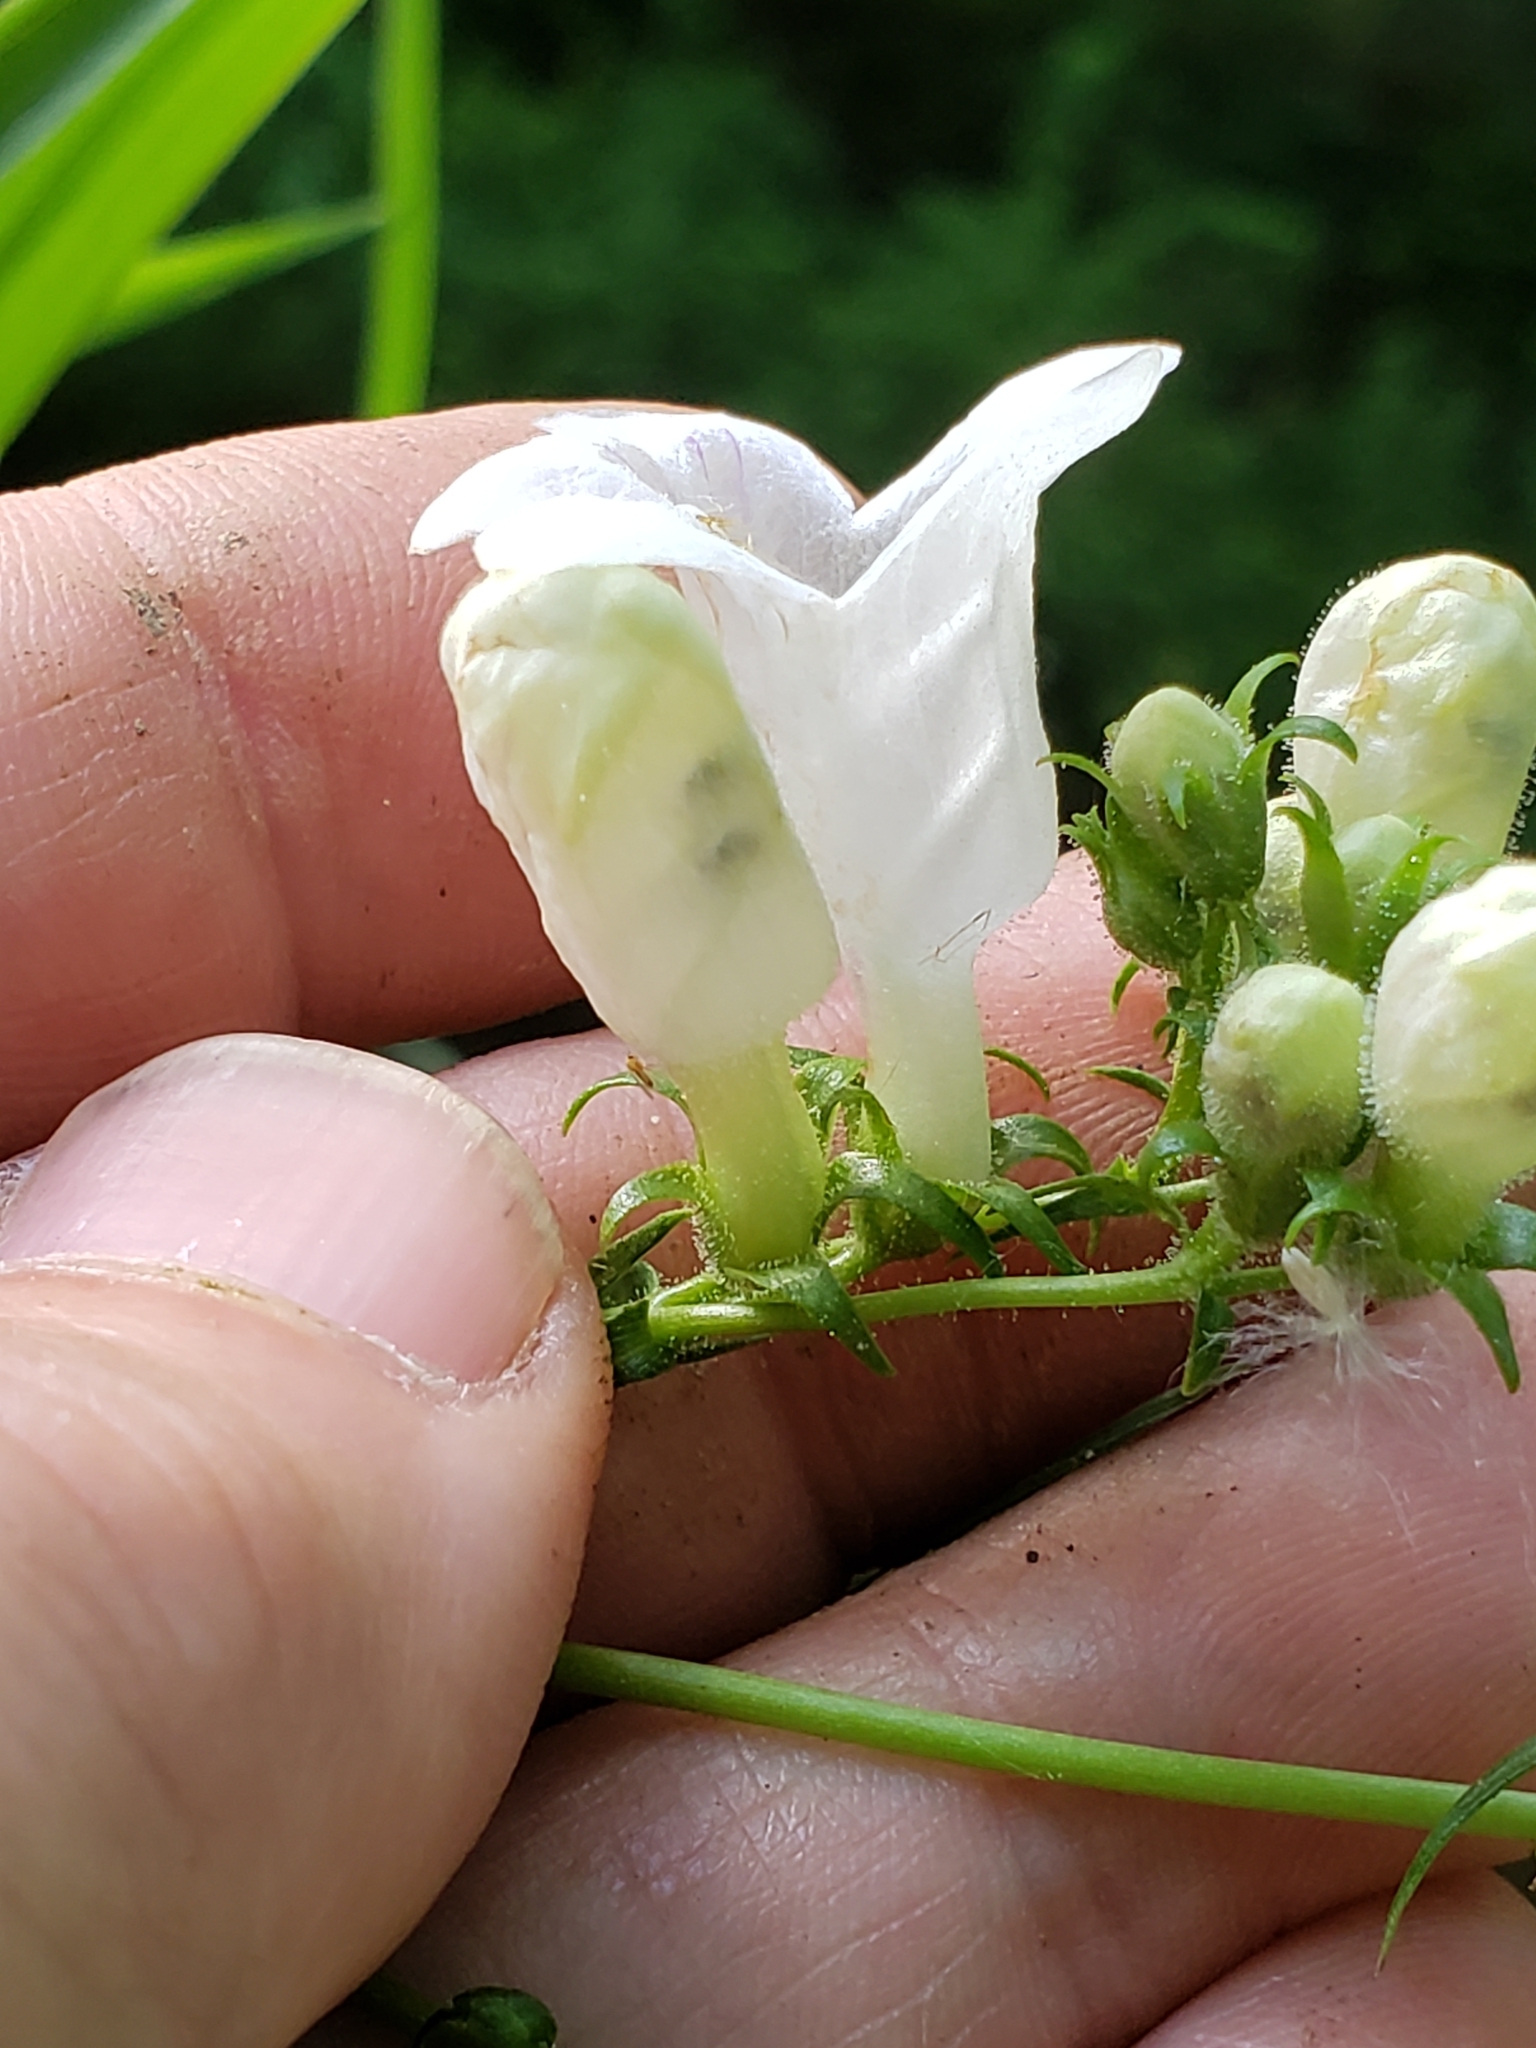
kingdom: Plantae
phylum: Tracheophyta
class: Magnoliopsida
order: Lamiales
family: Plantaginaceae
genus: Penstemon
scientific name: Penstemon digitalis
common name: Foxglove beardtongue
